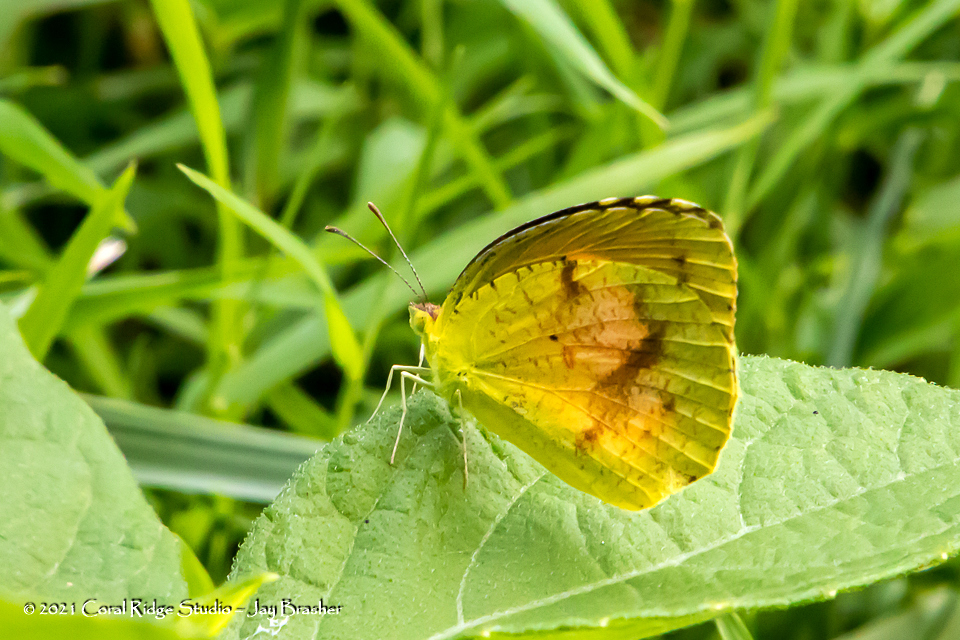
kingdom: Animalia
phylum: Arthropoda
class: Insecta
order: Lepidoptera
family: Pieridae
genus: Abaeis
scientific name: Abaeis nicippe
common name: Sleepy orange
